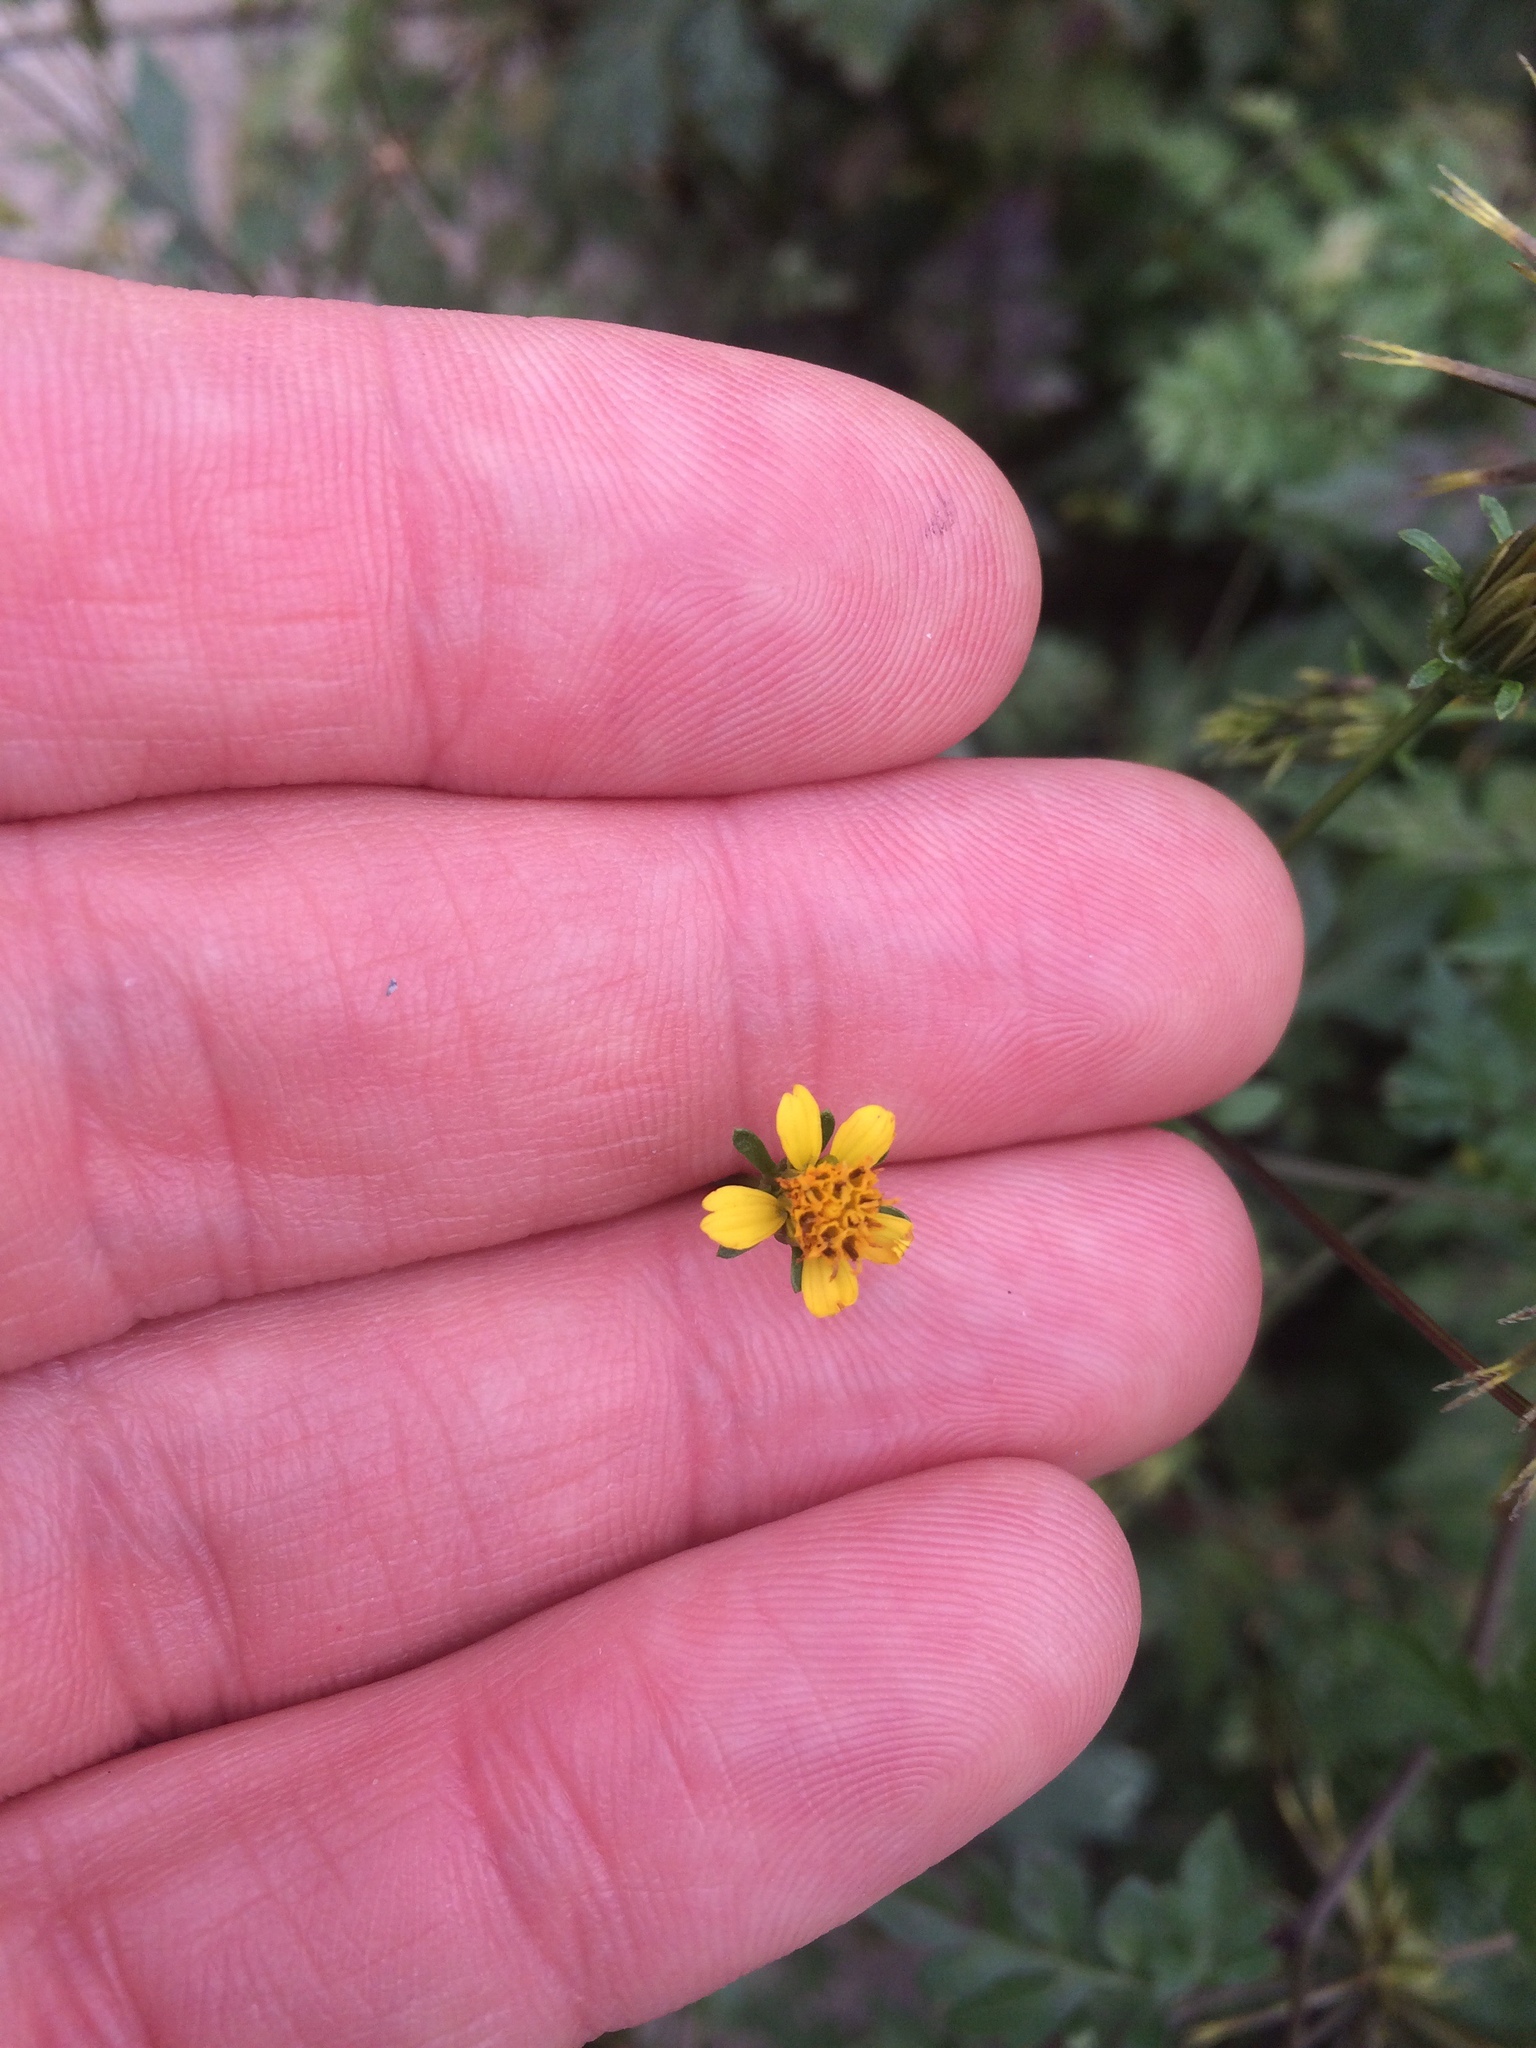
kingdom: Plantae
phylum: Tracheophyta
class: Magnoliopsida
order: Asterales
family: Asteraceae
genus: Bidens
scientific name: Bidens bipinnata
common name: Spanish-needles
